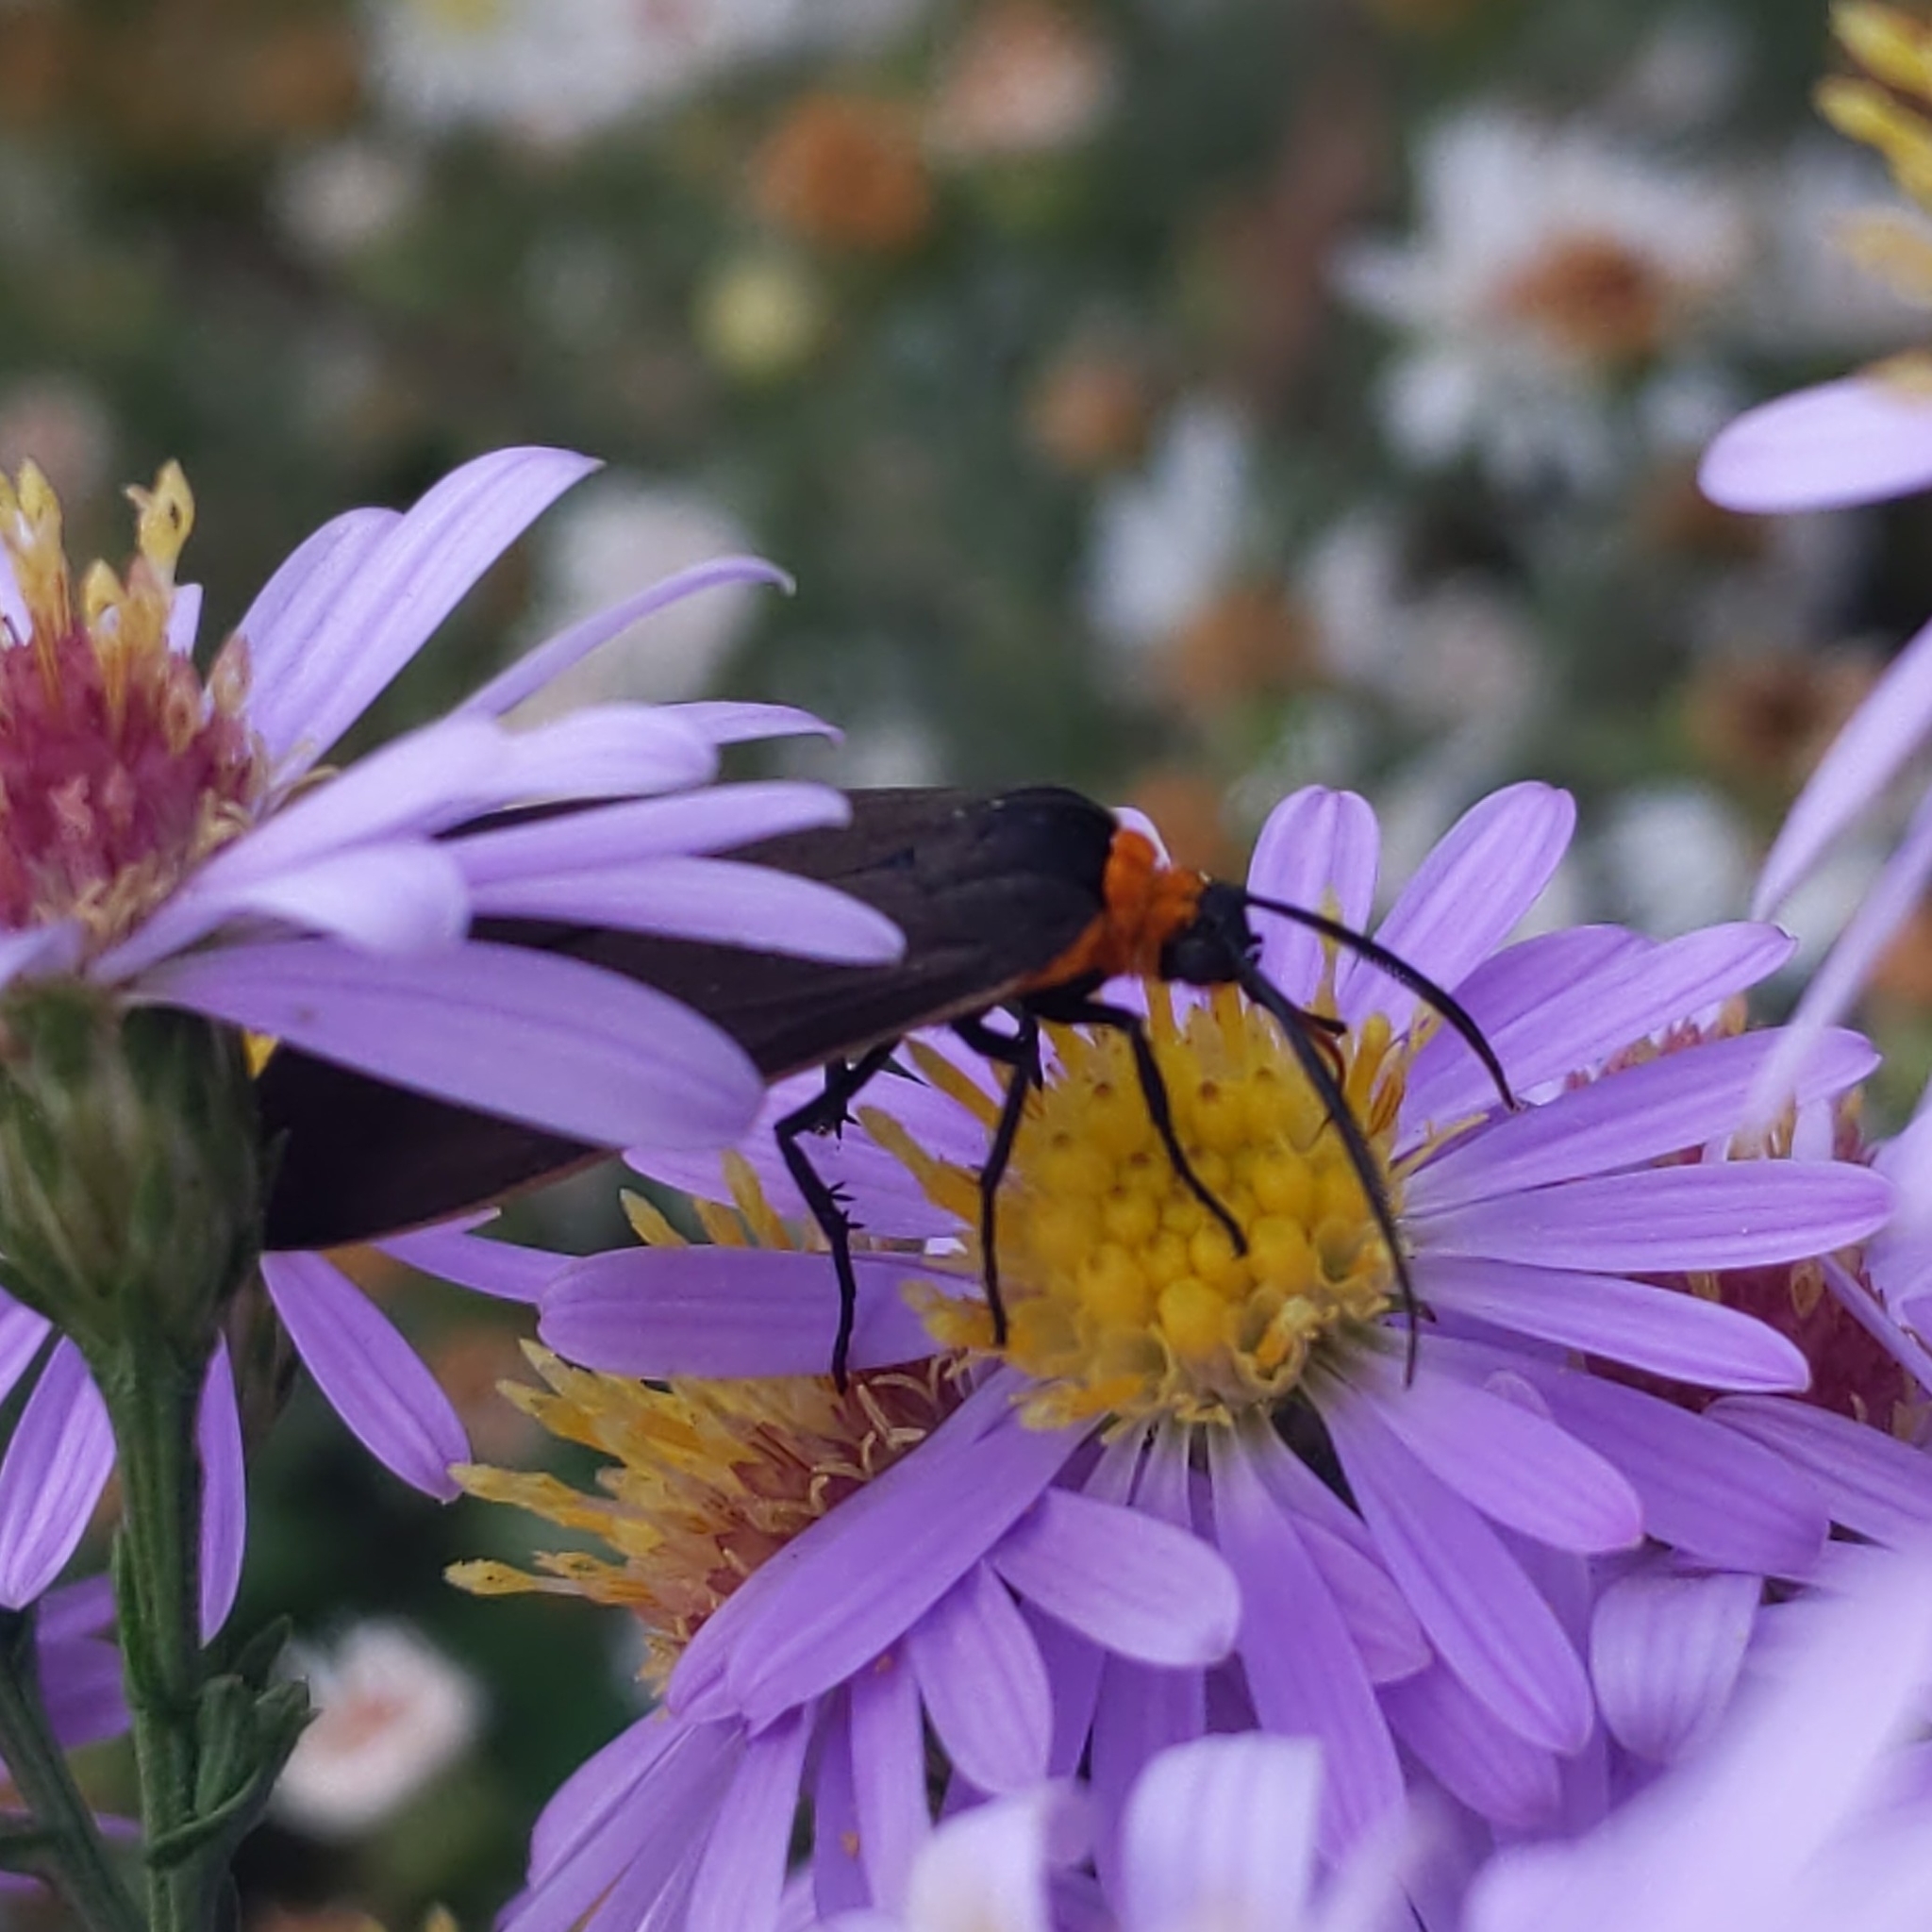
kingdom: Animalia
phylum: Arthropoda
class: Insecta
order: Lepidoptera
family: Erebidae
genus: Cisseps
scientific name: Cisseps fulvicollis
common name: Yellow-collared scape moth
